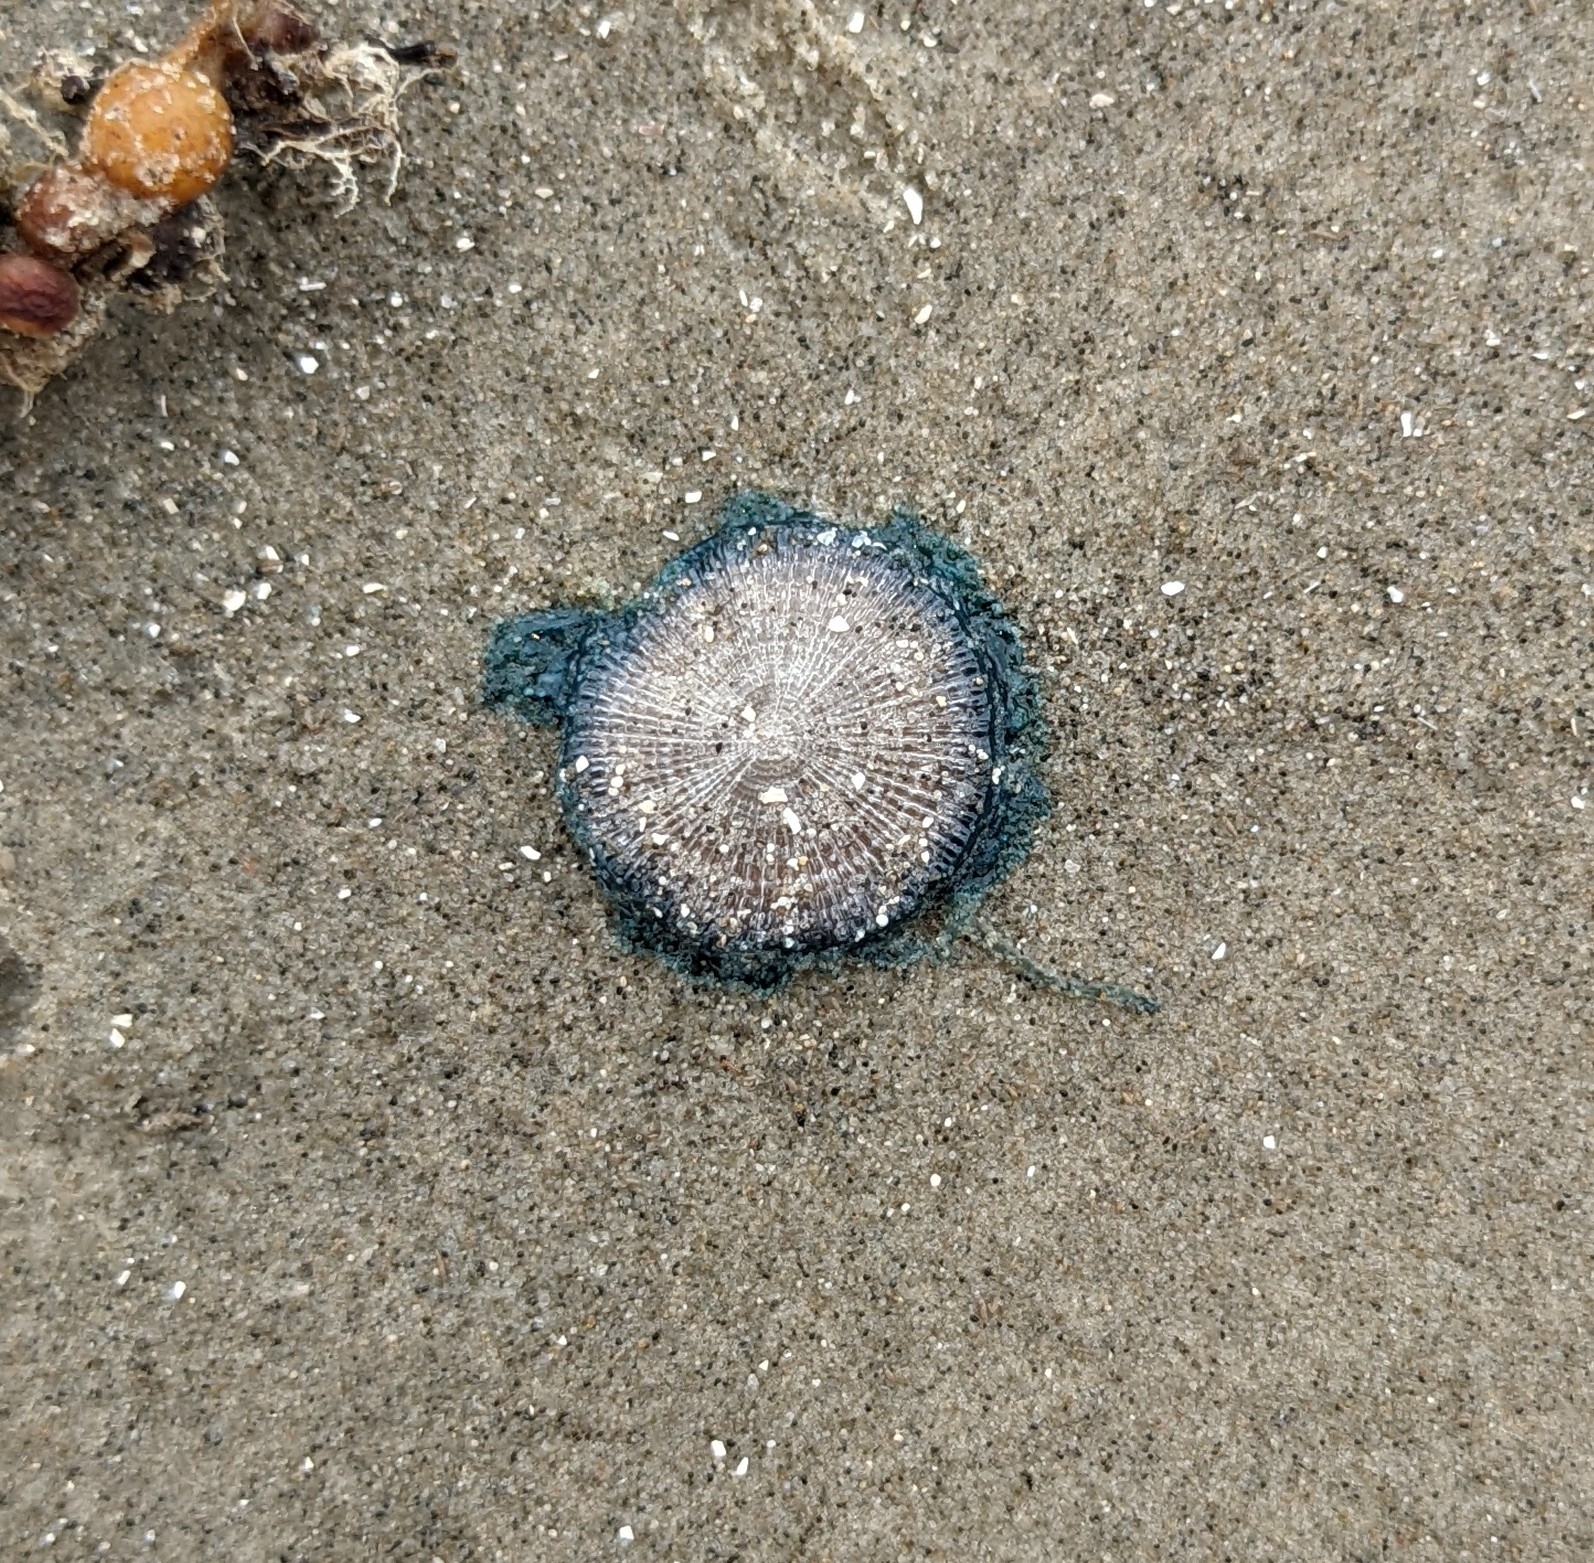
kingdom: Animalia
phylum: Cnidaria
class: Hydrozoa
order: Anthoathecata
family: Porpitidae
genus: Porpita
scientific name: Porpita porpita
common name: Blue button
